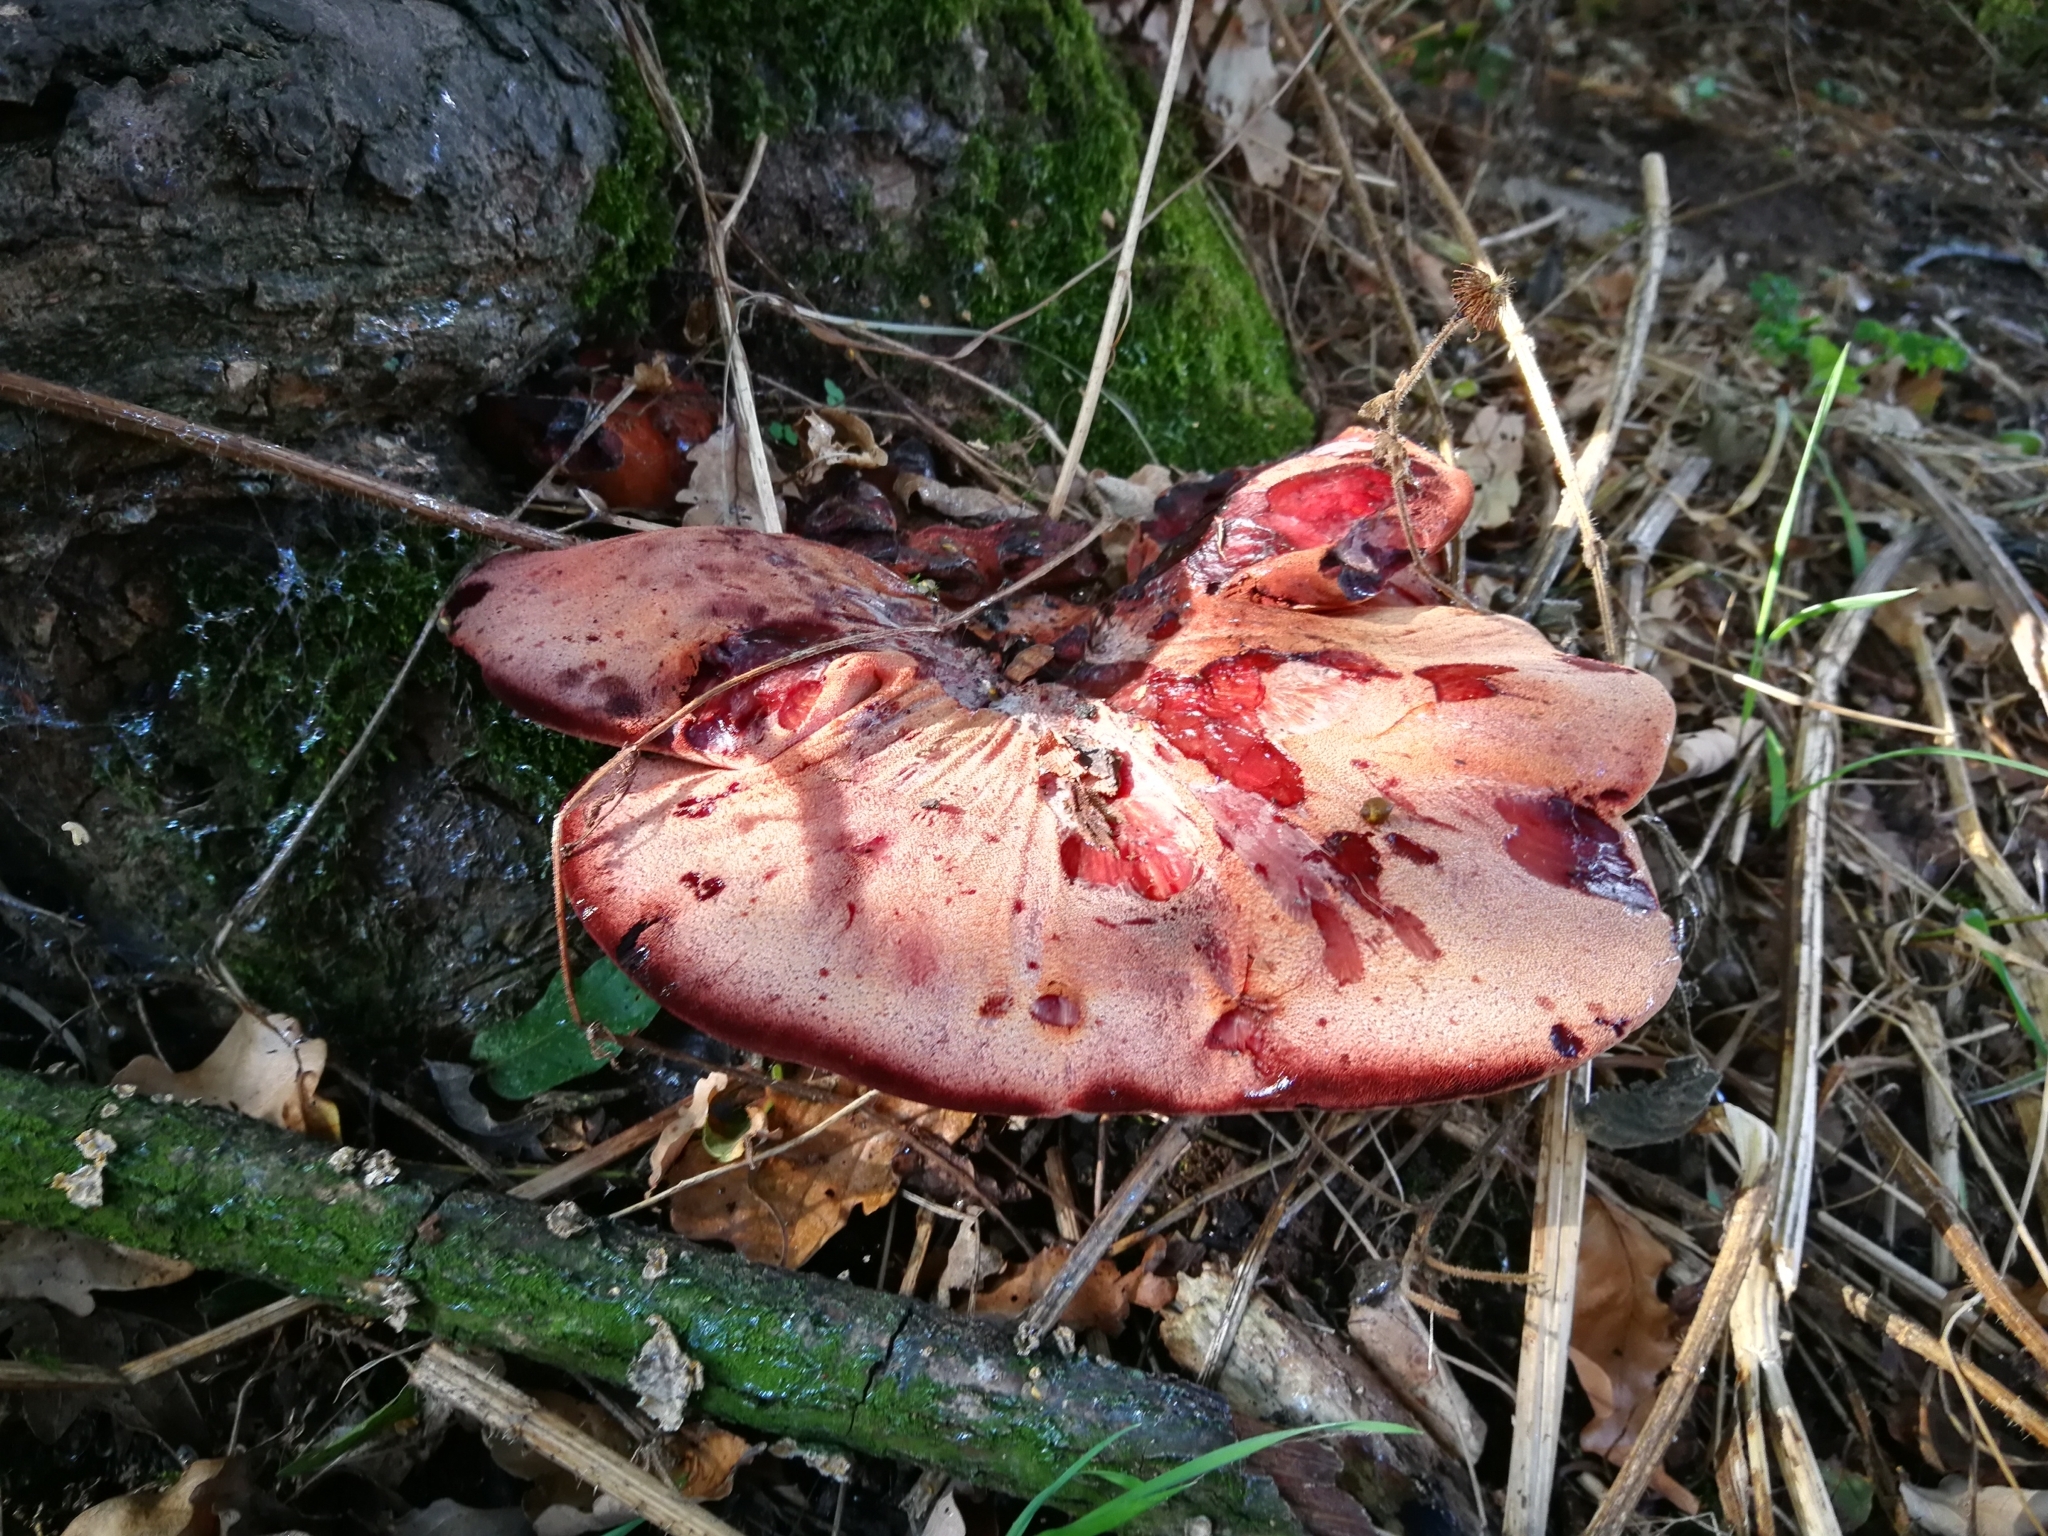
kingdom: Fungi
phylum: Basidiomycota
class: Agaricomycetes
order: Agaricales
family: Fistulinaceae
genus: Fistulina
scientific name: Fistulina hepatica
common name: Beef-steak fungus
